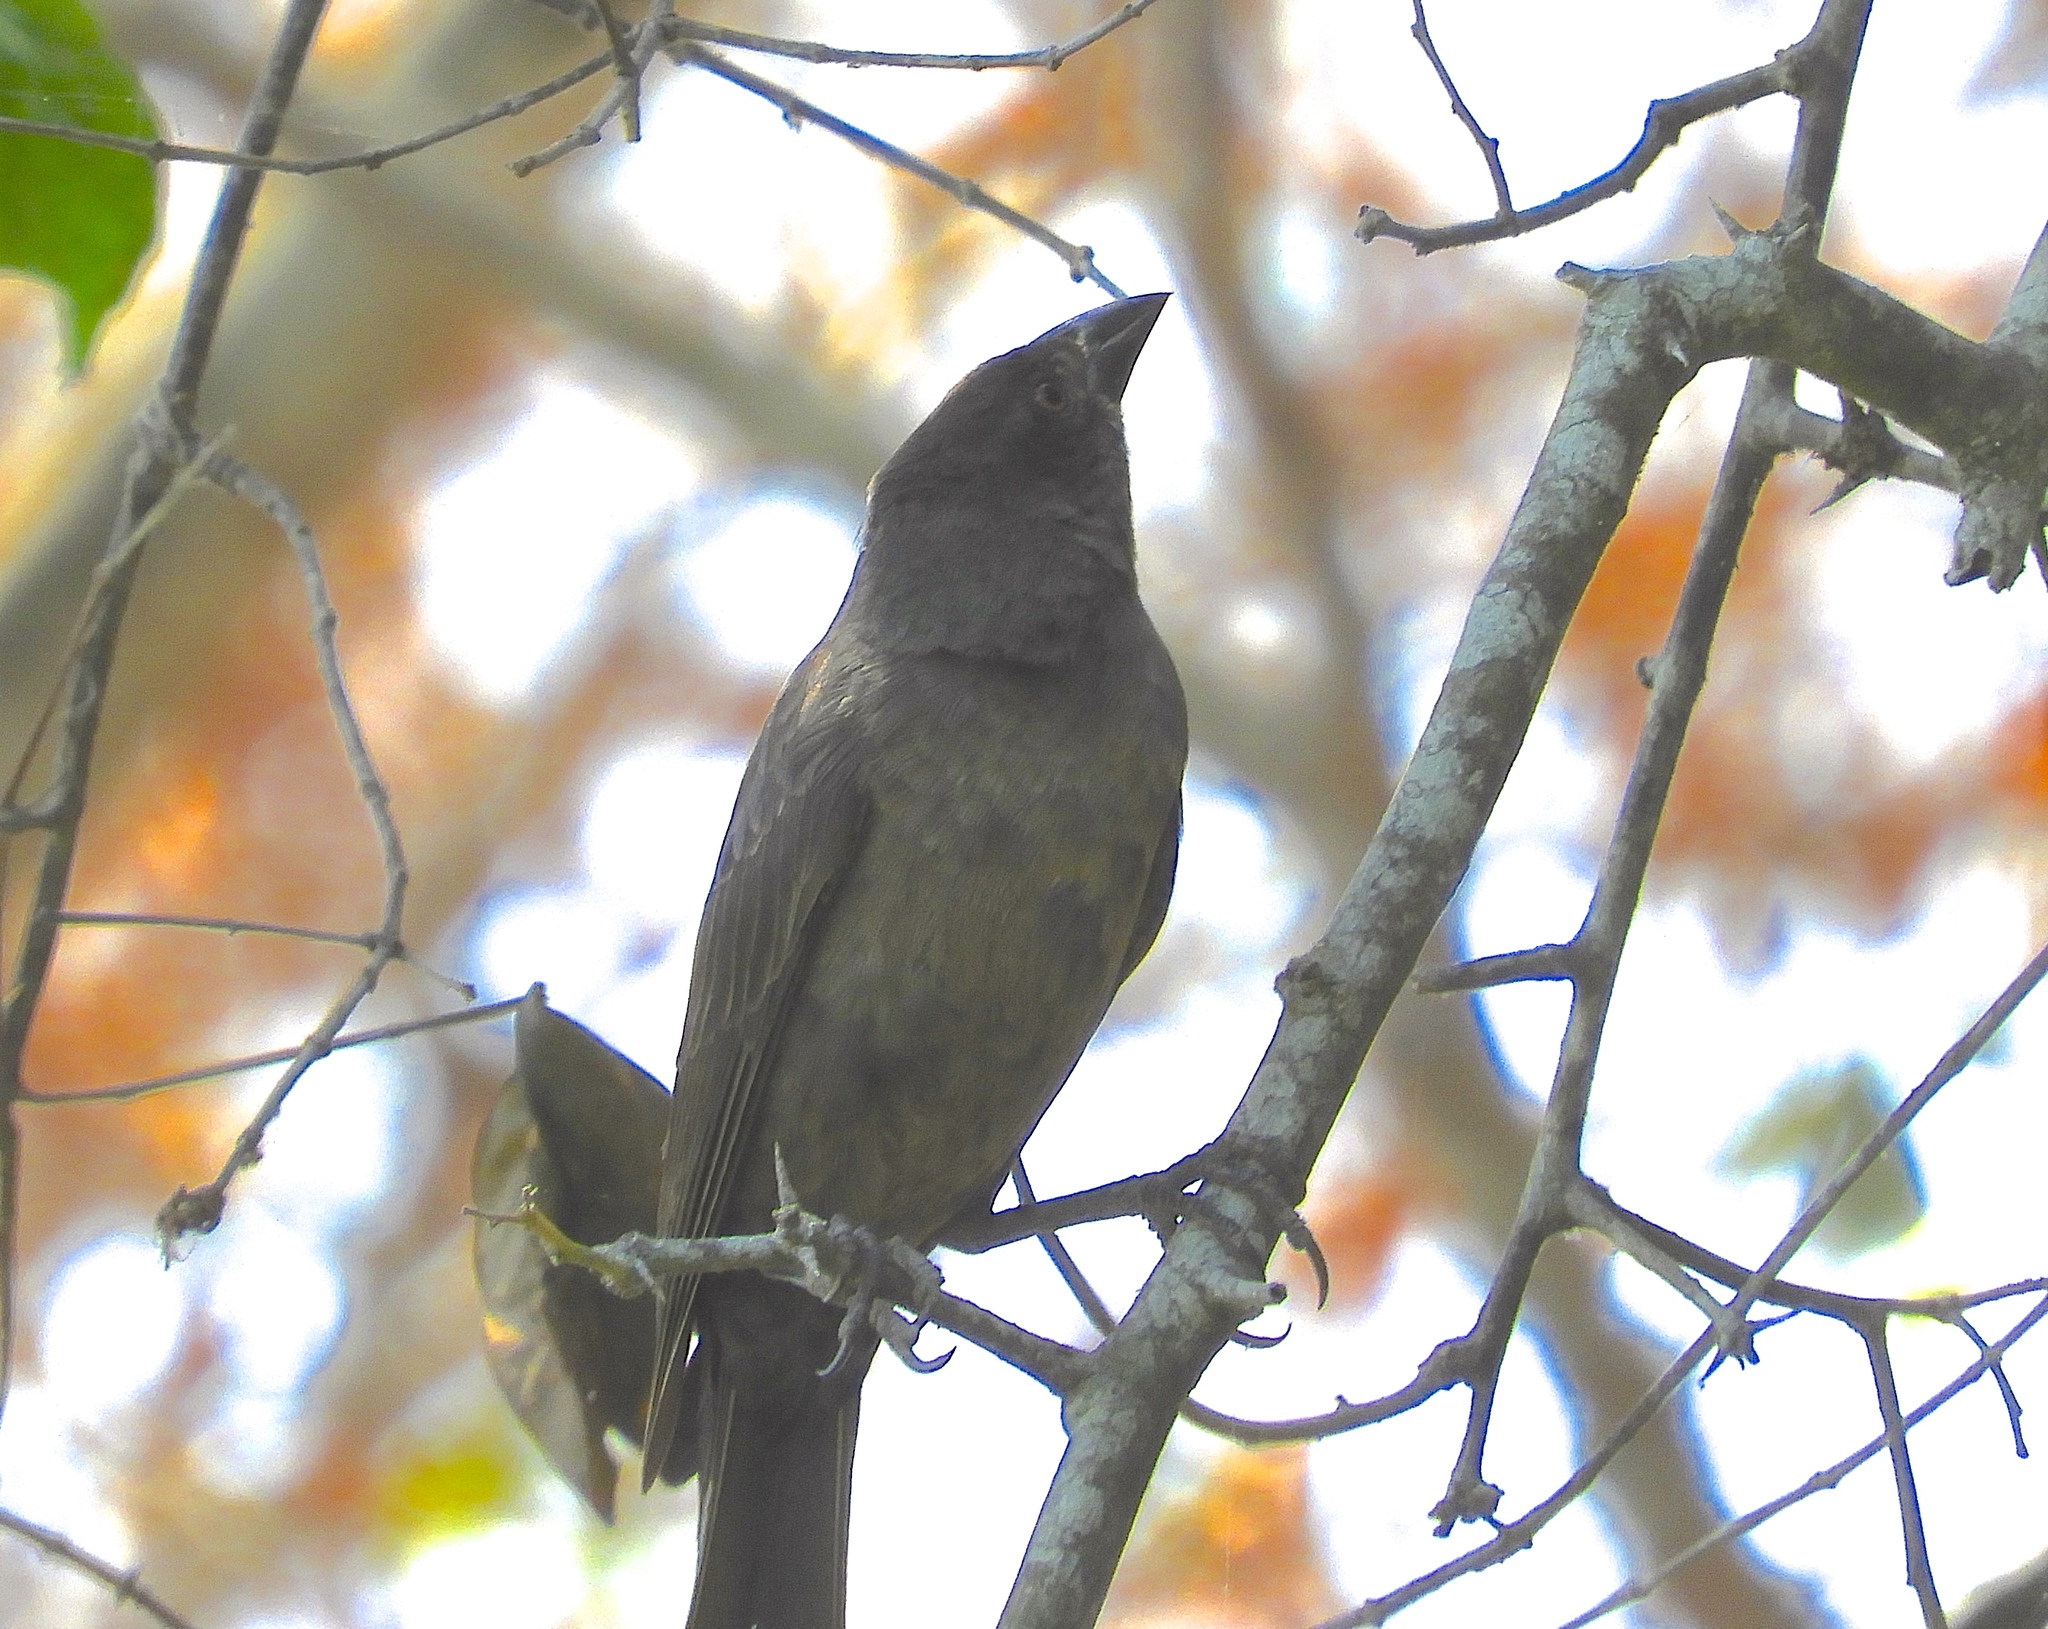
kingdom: Animalia
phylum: Chordata
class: Aves
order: Passeriformes
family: Icteridae
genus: Molothrus
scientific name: Molothrus aeneus
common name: Bronzed cowbird
